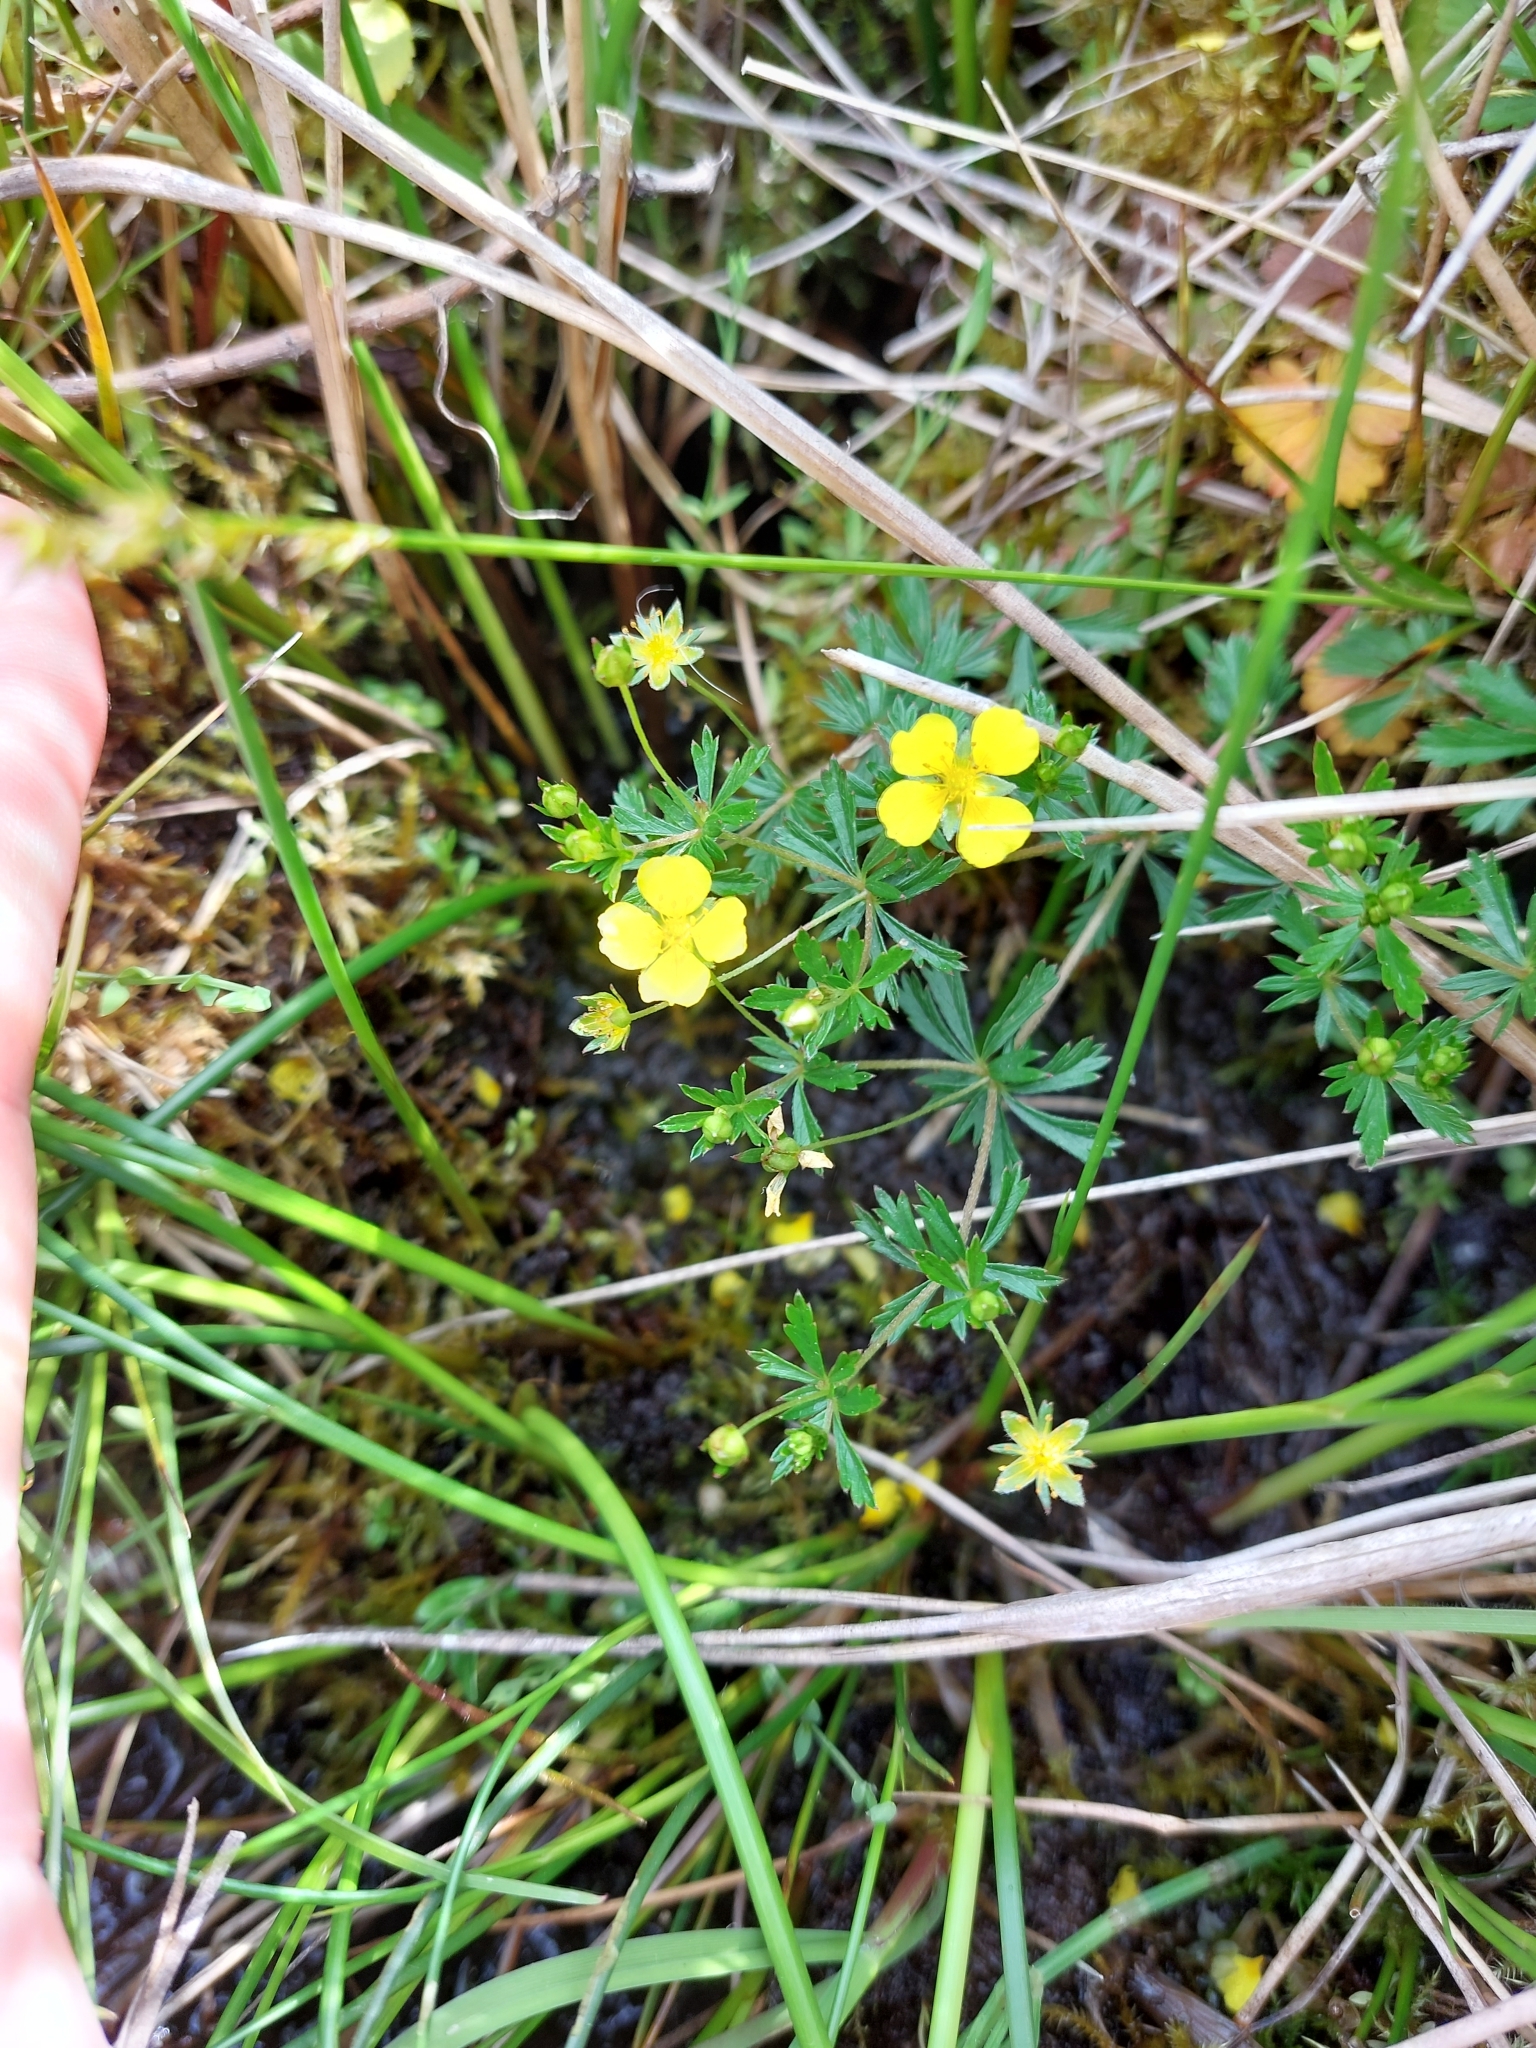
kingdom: Plantae
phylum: Tracheophyta
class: Magnoliopsida
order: Rosales
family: Rosaceae
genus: Potentilla
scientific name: Potentilla erecta
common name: Tormentil
